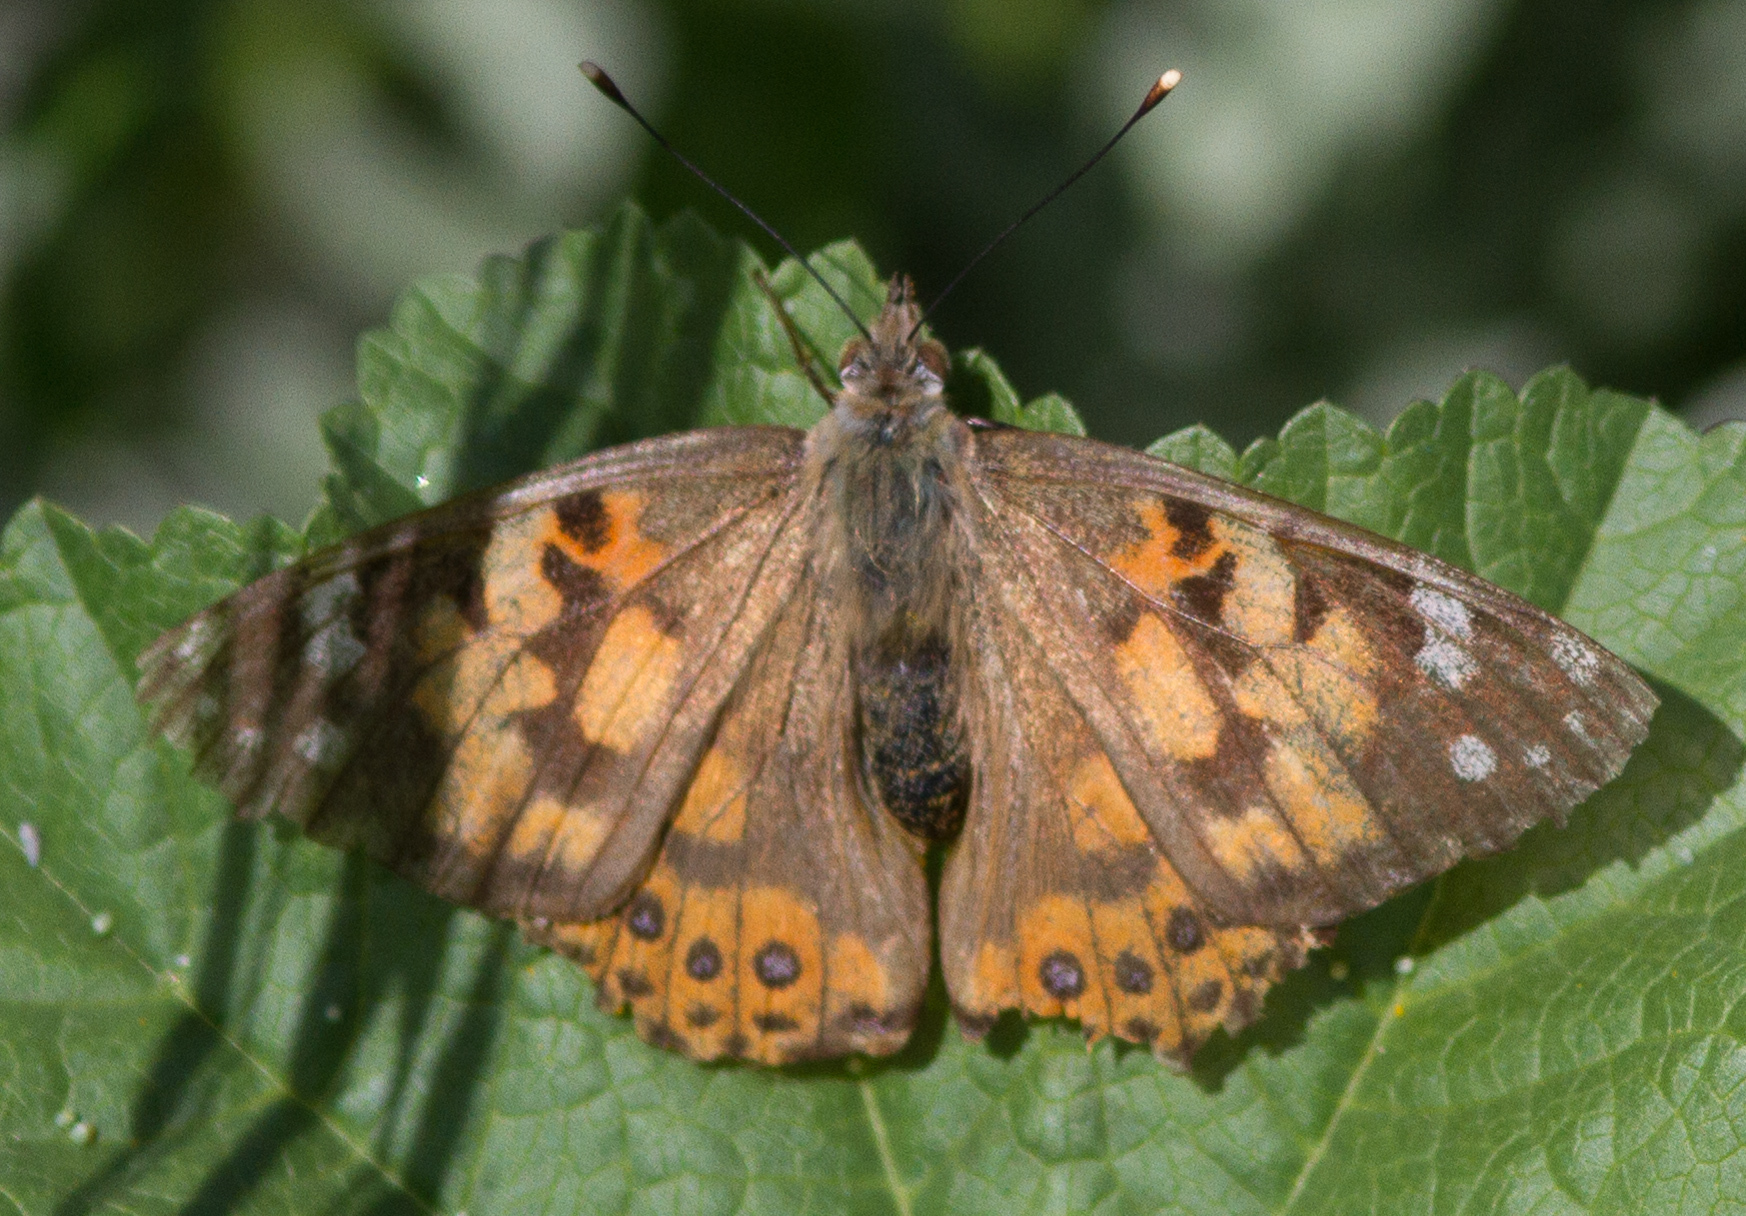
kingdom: Animalia
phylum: Arthropoda
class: Insecta
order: Lepidoptera
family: Nymphalidae
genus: Vanessa
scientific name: Vanessa cardui
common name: Painted lady
